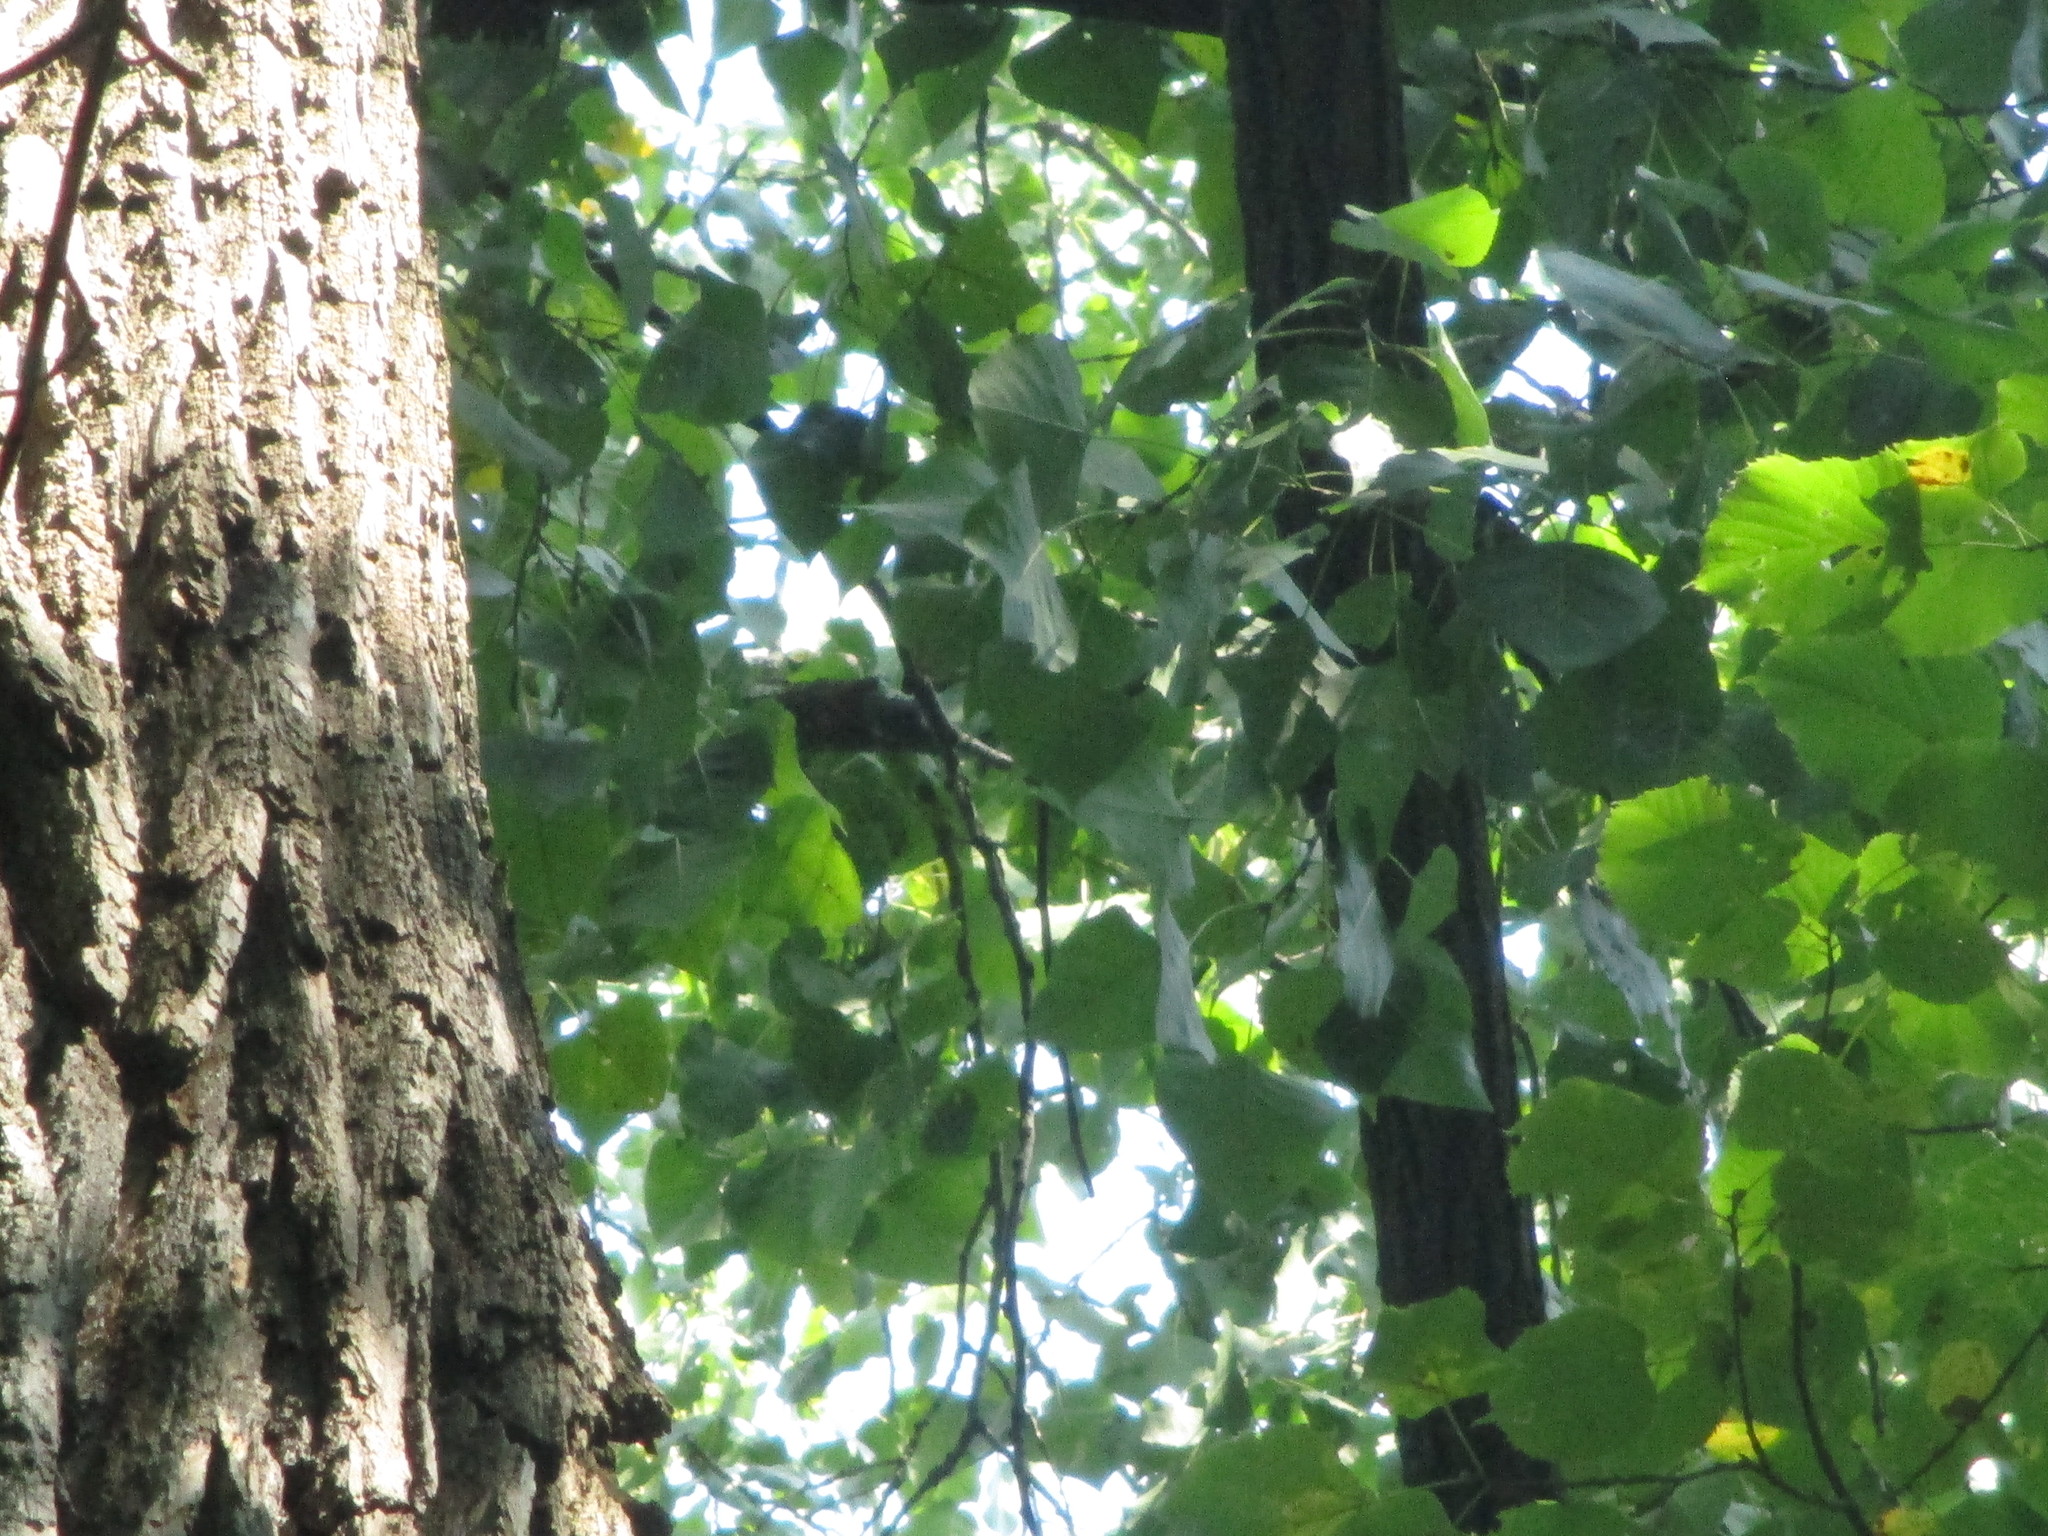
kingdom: Plantae
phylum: Tracheophyta
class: Magnoliopsida
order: Malpighiales
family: Salicaceae
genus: Populus
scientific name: Populus deltoides
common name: Eastern cottonwood
